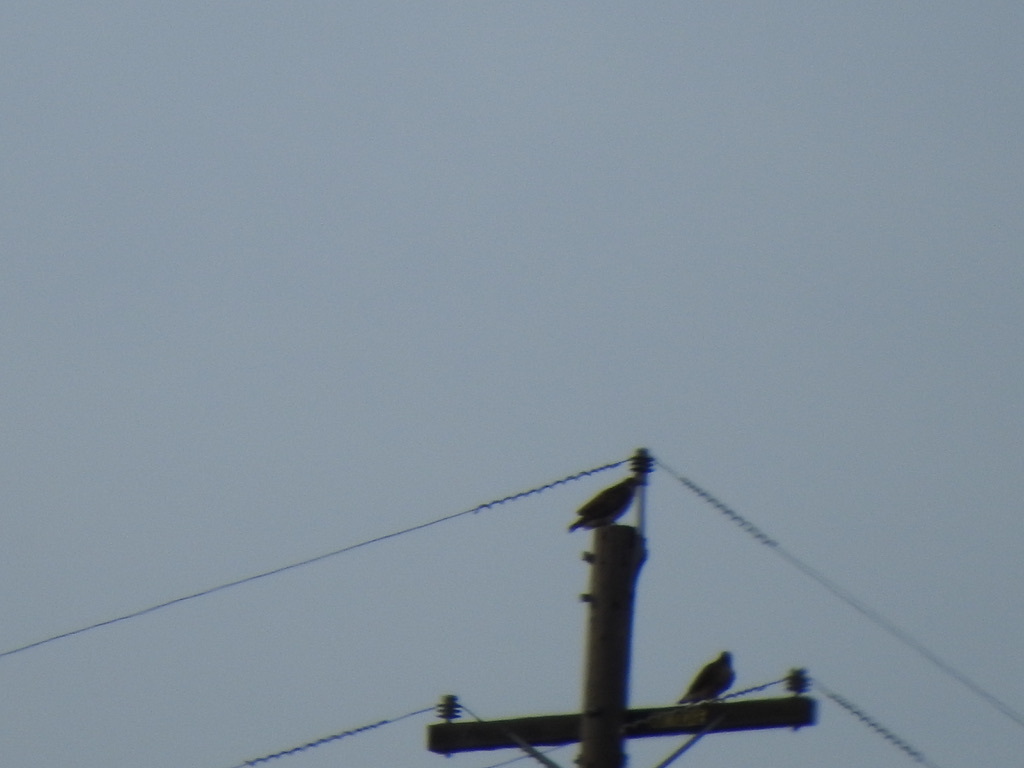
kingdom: Animalia
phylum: Chordata
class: Aves
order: Accipitriformes
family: Accipitridae
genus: Buteo
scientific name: Buteo jamaicensis
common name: Red-tailed hawk
